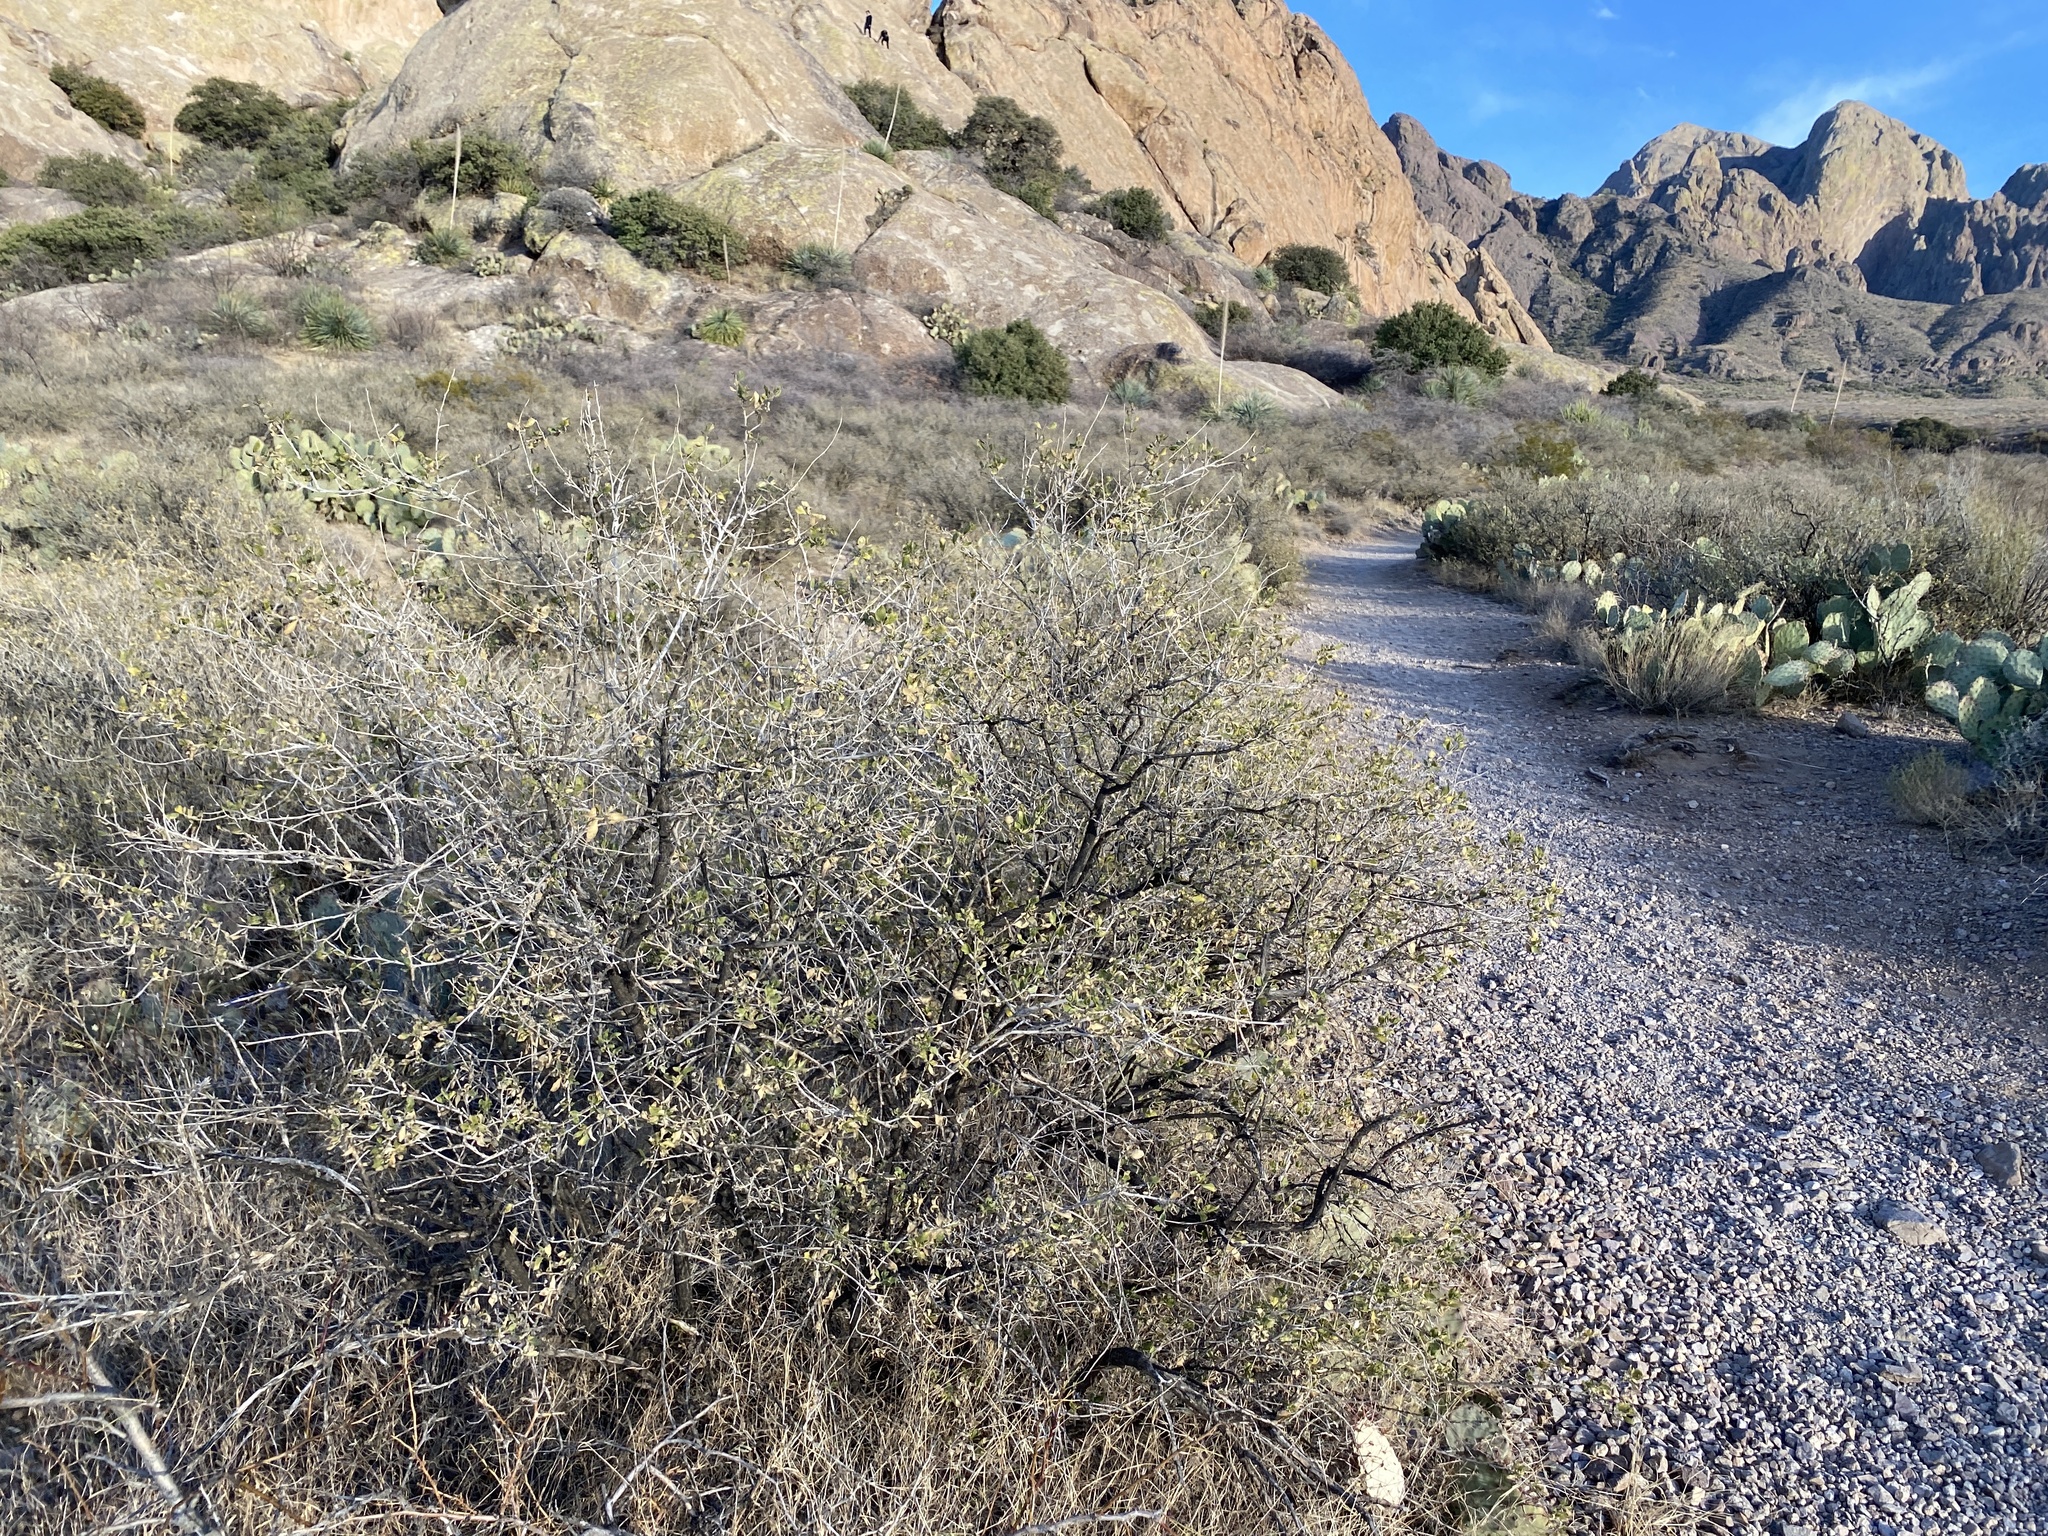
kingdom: Plantae
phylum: Tracheophyta
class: Magnoliopsida
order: Asterales
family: Asteraceae
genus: Flourensia
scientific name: Flourensia cernua
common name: Varnishbush
